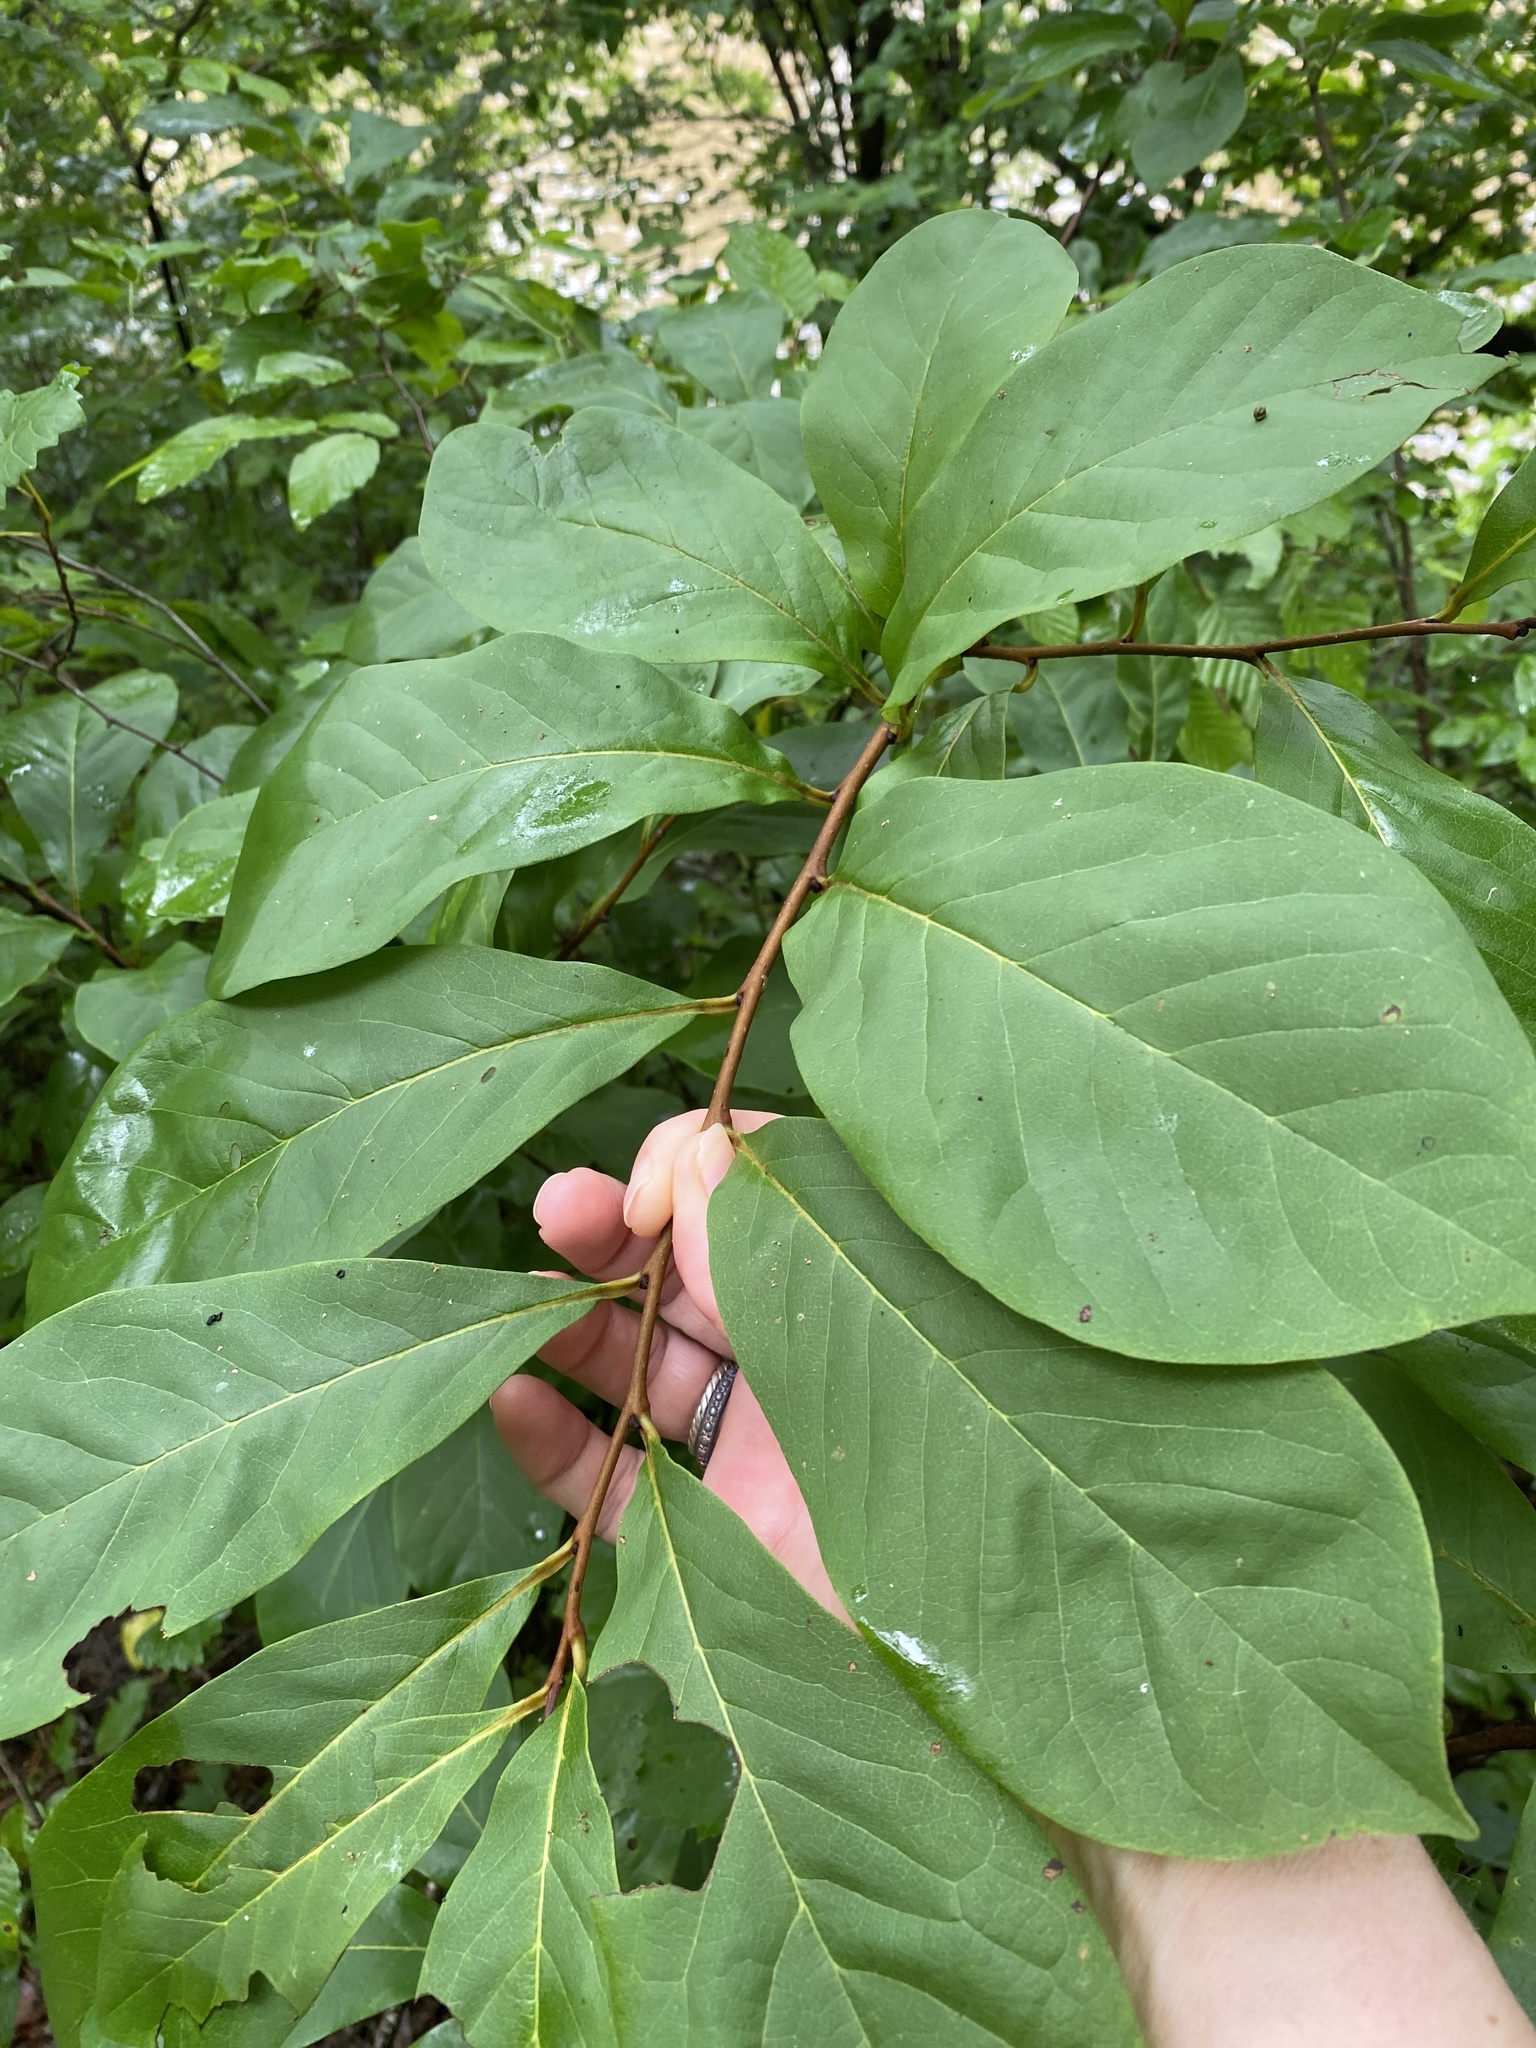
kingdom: Plantae
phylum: Tracheophyta
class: Magnoliopsida
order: Magnoliales
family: Annonaceae
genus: Asimina
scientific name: Asimina parviflora
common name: Dwarf pawpaw
